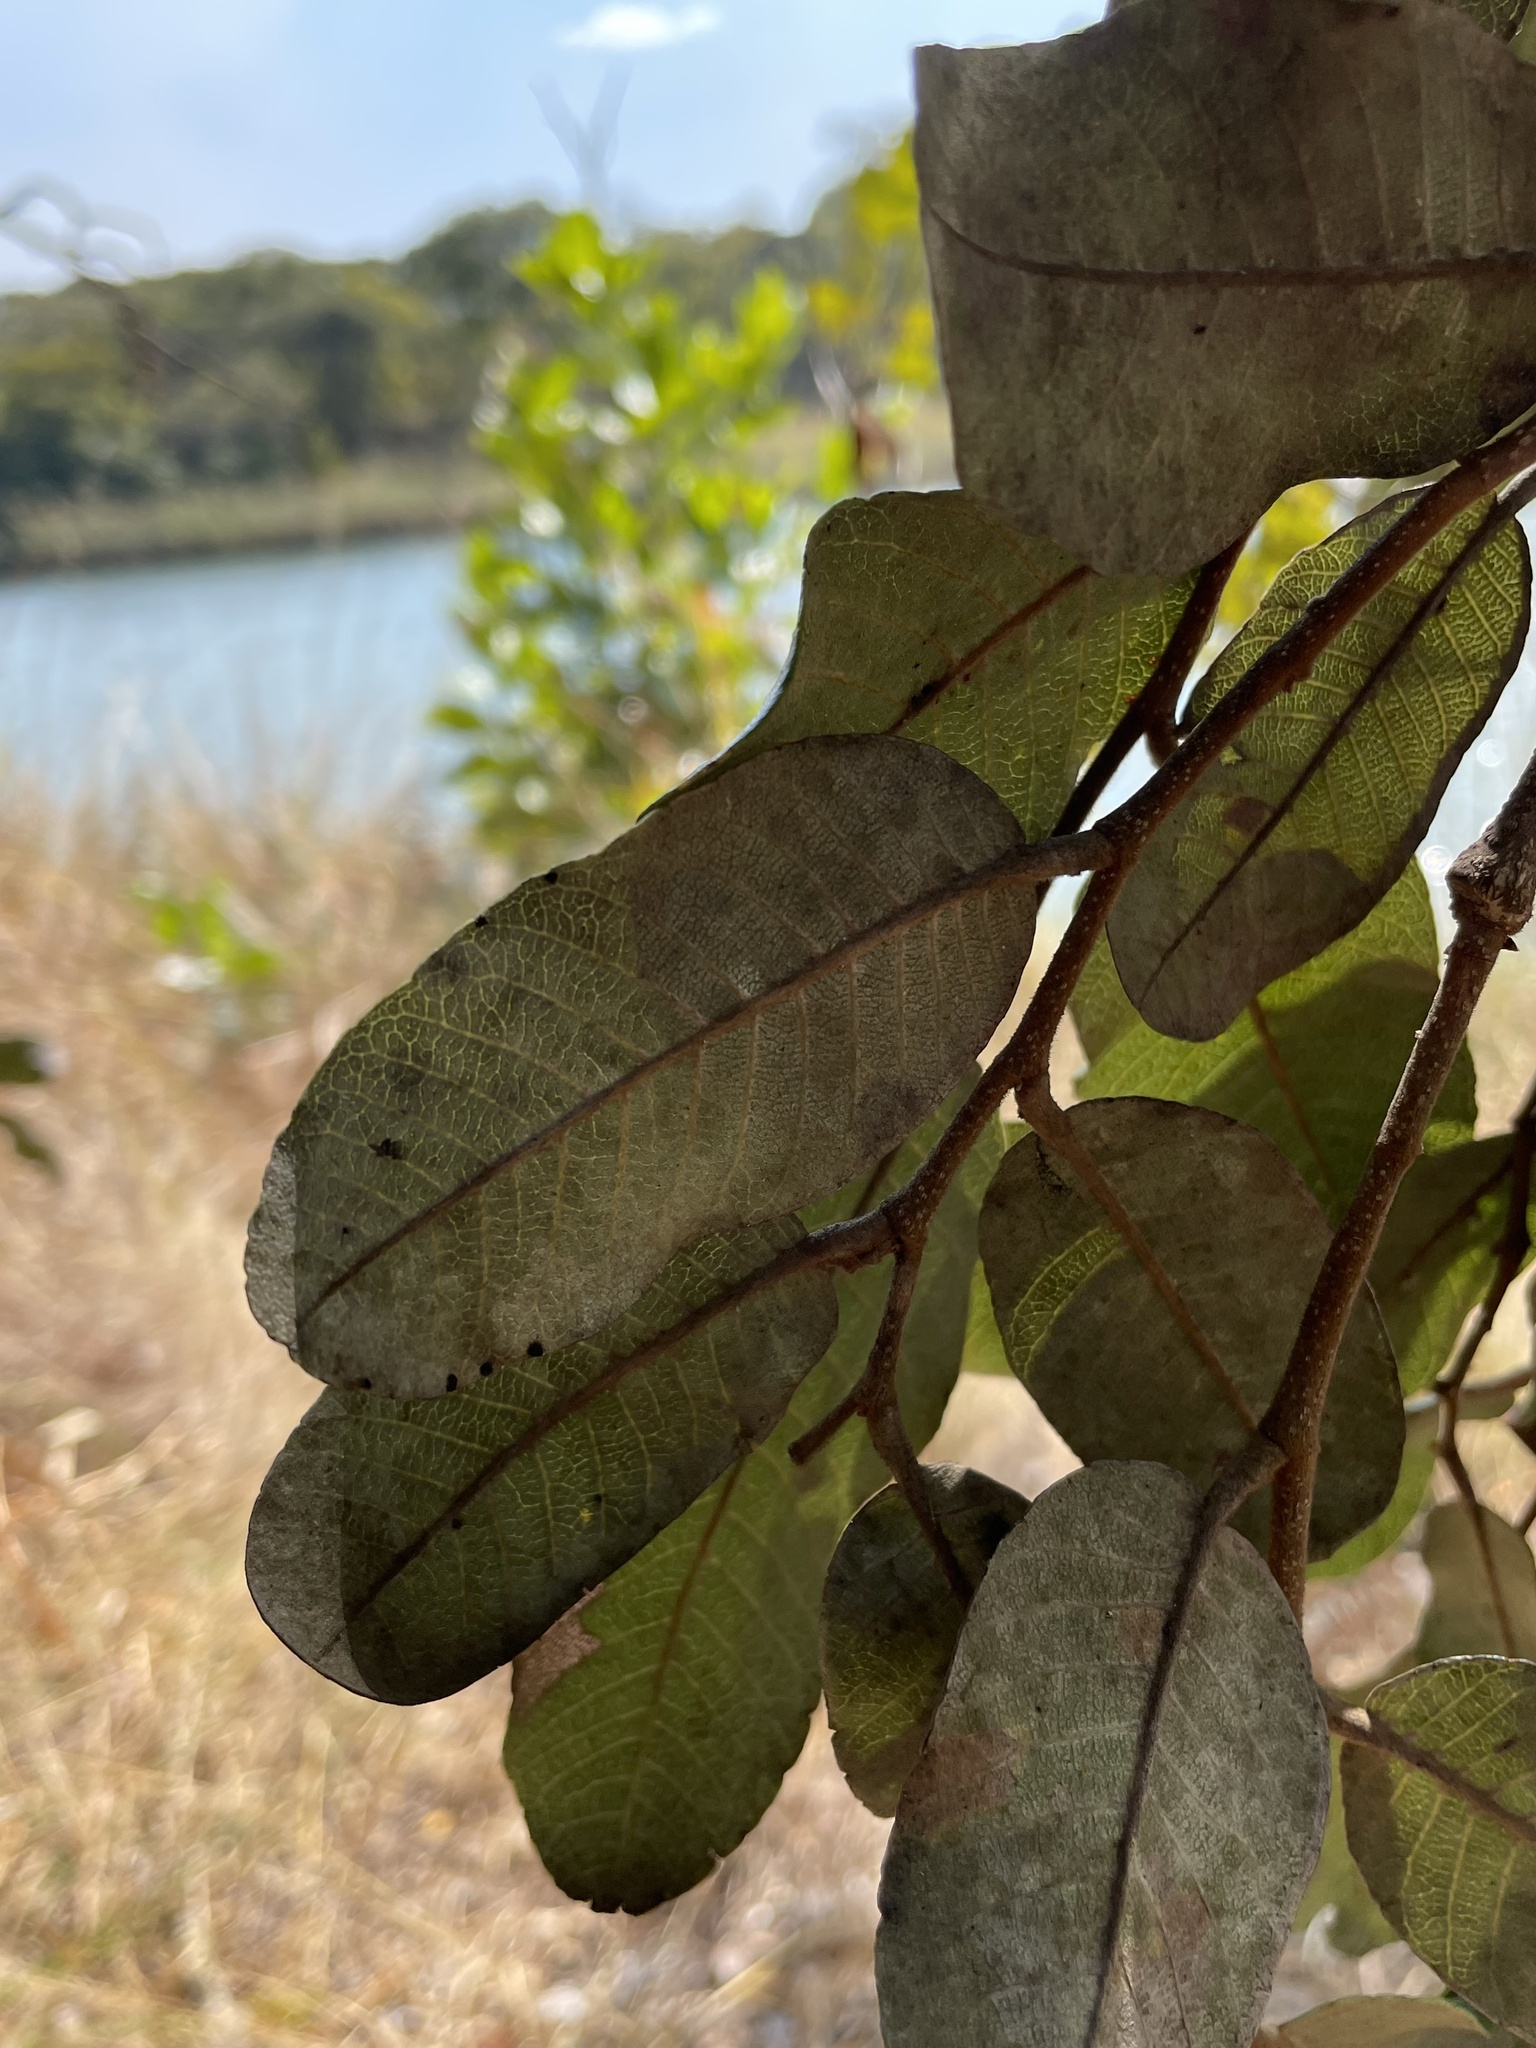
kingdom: Plantae
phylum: Tracheophyta
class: Magnoliopsida
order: Malpighiales
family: Chrysobalanaceae
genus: Parinari
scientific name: Parinari curatellifolia
